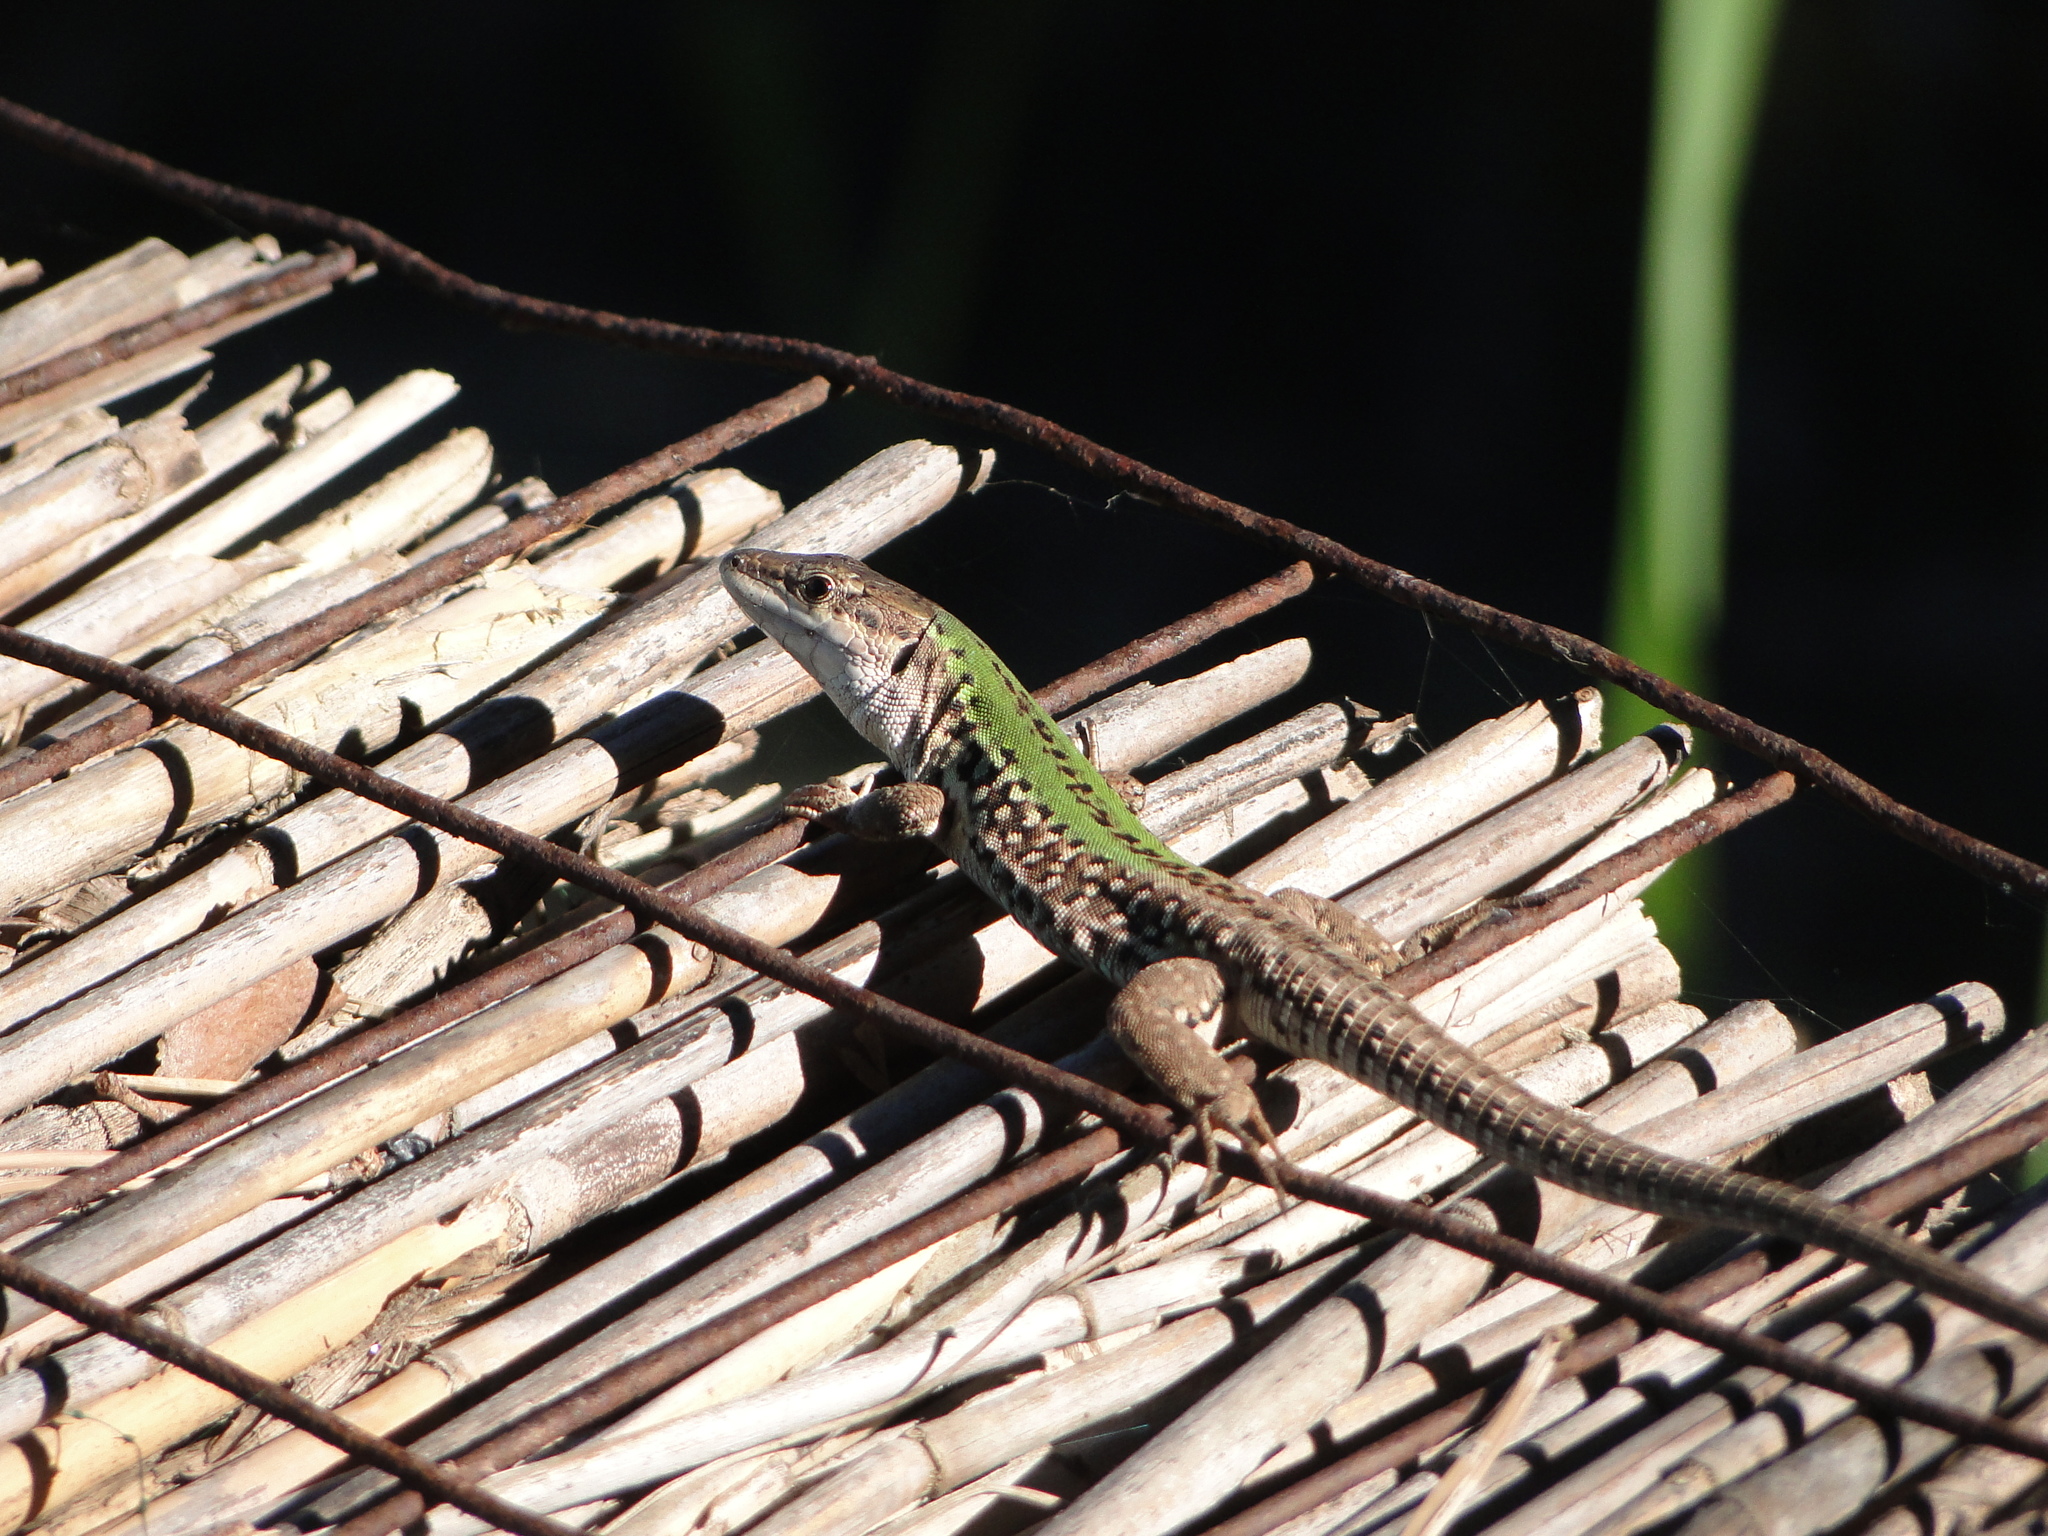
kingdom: Animalia
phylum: Chordata
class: Squamata
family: Lacertidae
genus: Podarcis
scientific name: Podarcis siculus
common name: Italian wall lizard
